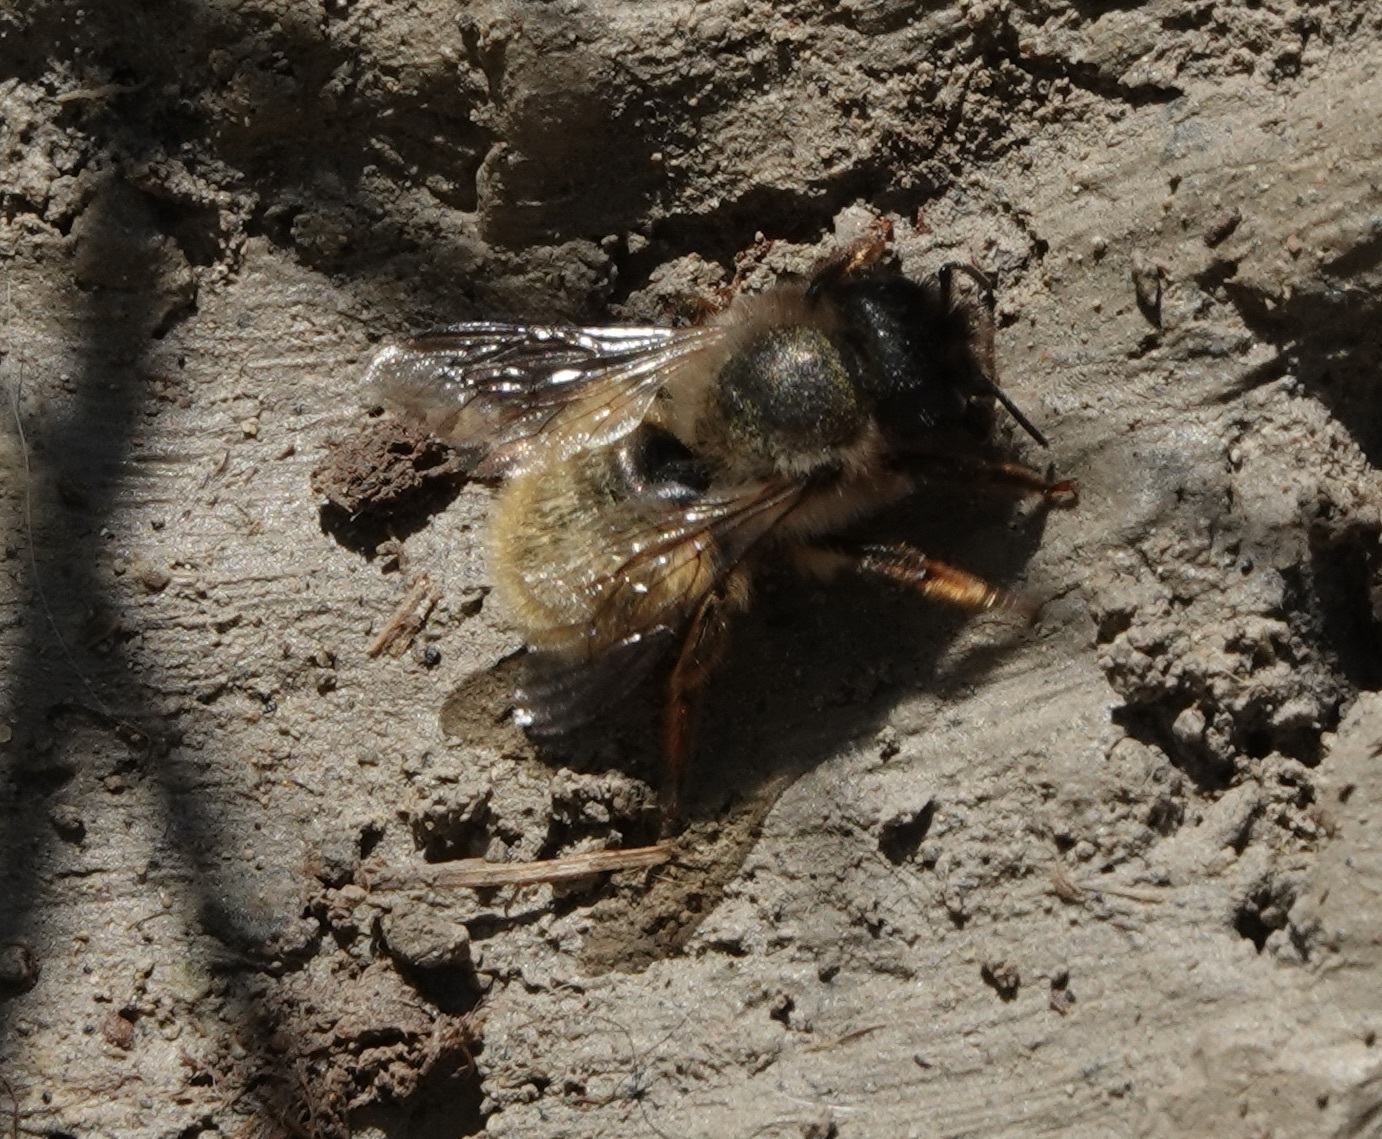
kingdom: Animalia
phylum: Arthropoda
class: Insecta
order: Hymenoptera
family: Megachilidae
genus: Osmia
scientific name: Osmia bicornis
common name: Red mason bee
